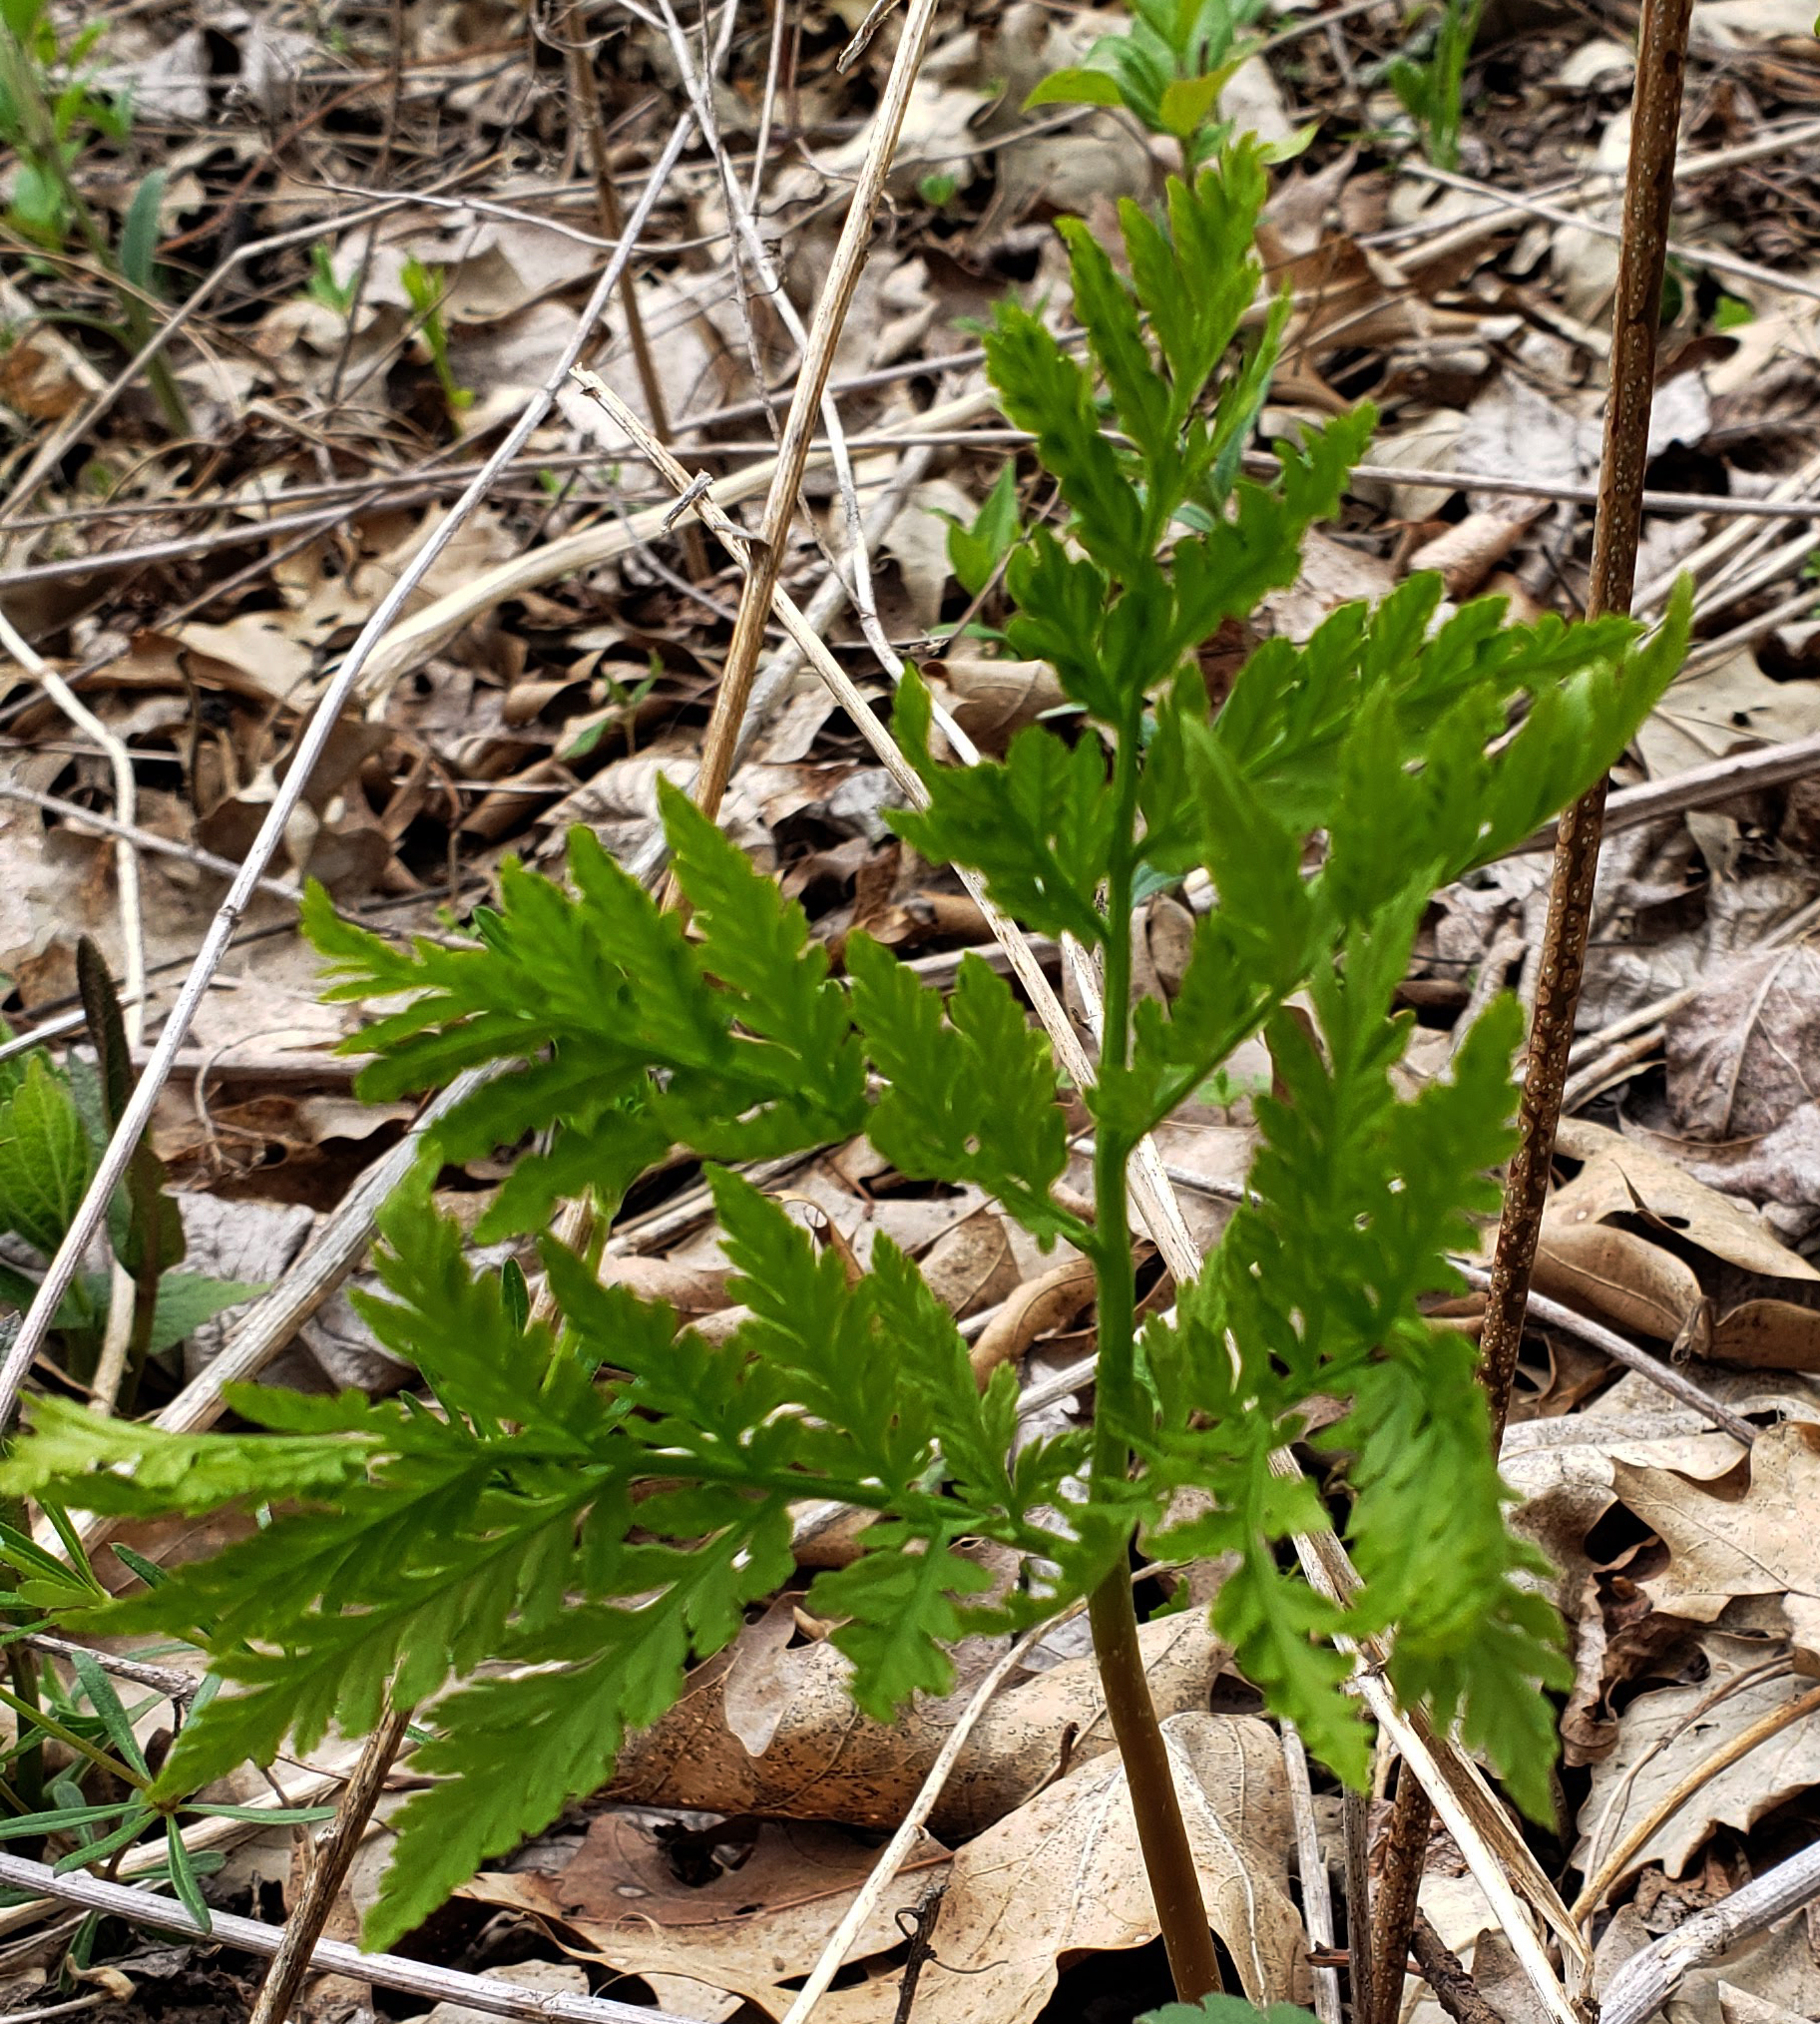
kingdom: Plantae
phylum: Tracheophyta
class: Polypodiopsida
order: Ophioglossales
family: Ophioglossaceae
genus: Botrypus
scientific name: Botrypus virginianus
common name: Common grapefern
